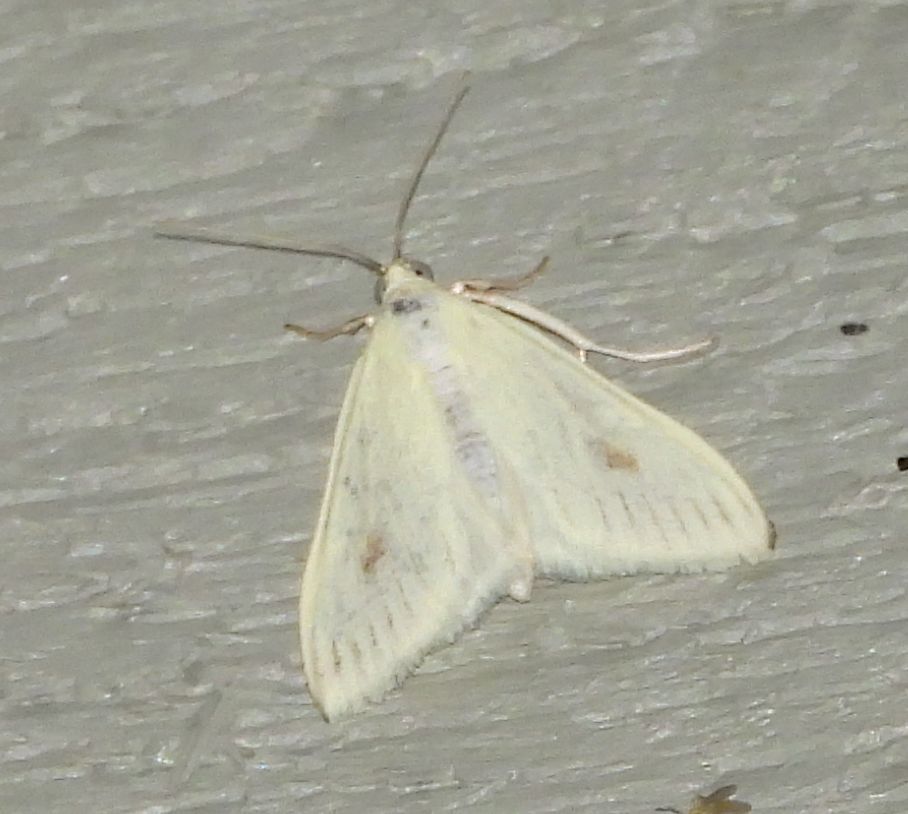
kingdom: Animalia
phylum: Arthropoda
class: Insecta
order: Lepidoptera
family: Crambidae
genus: Sitochroa
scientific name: Sitochroa palealis
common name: Greenish-yellow sitochroa moth
